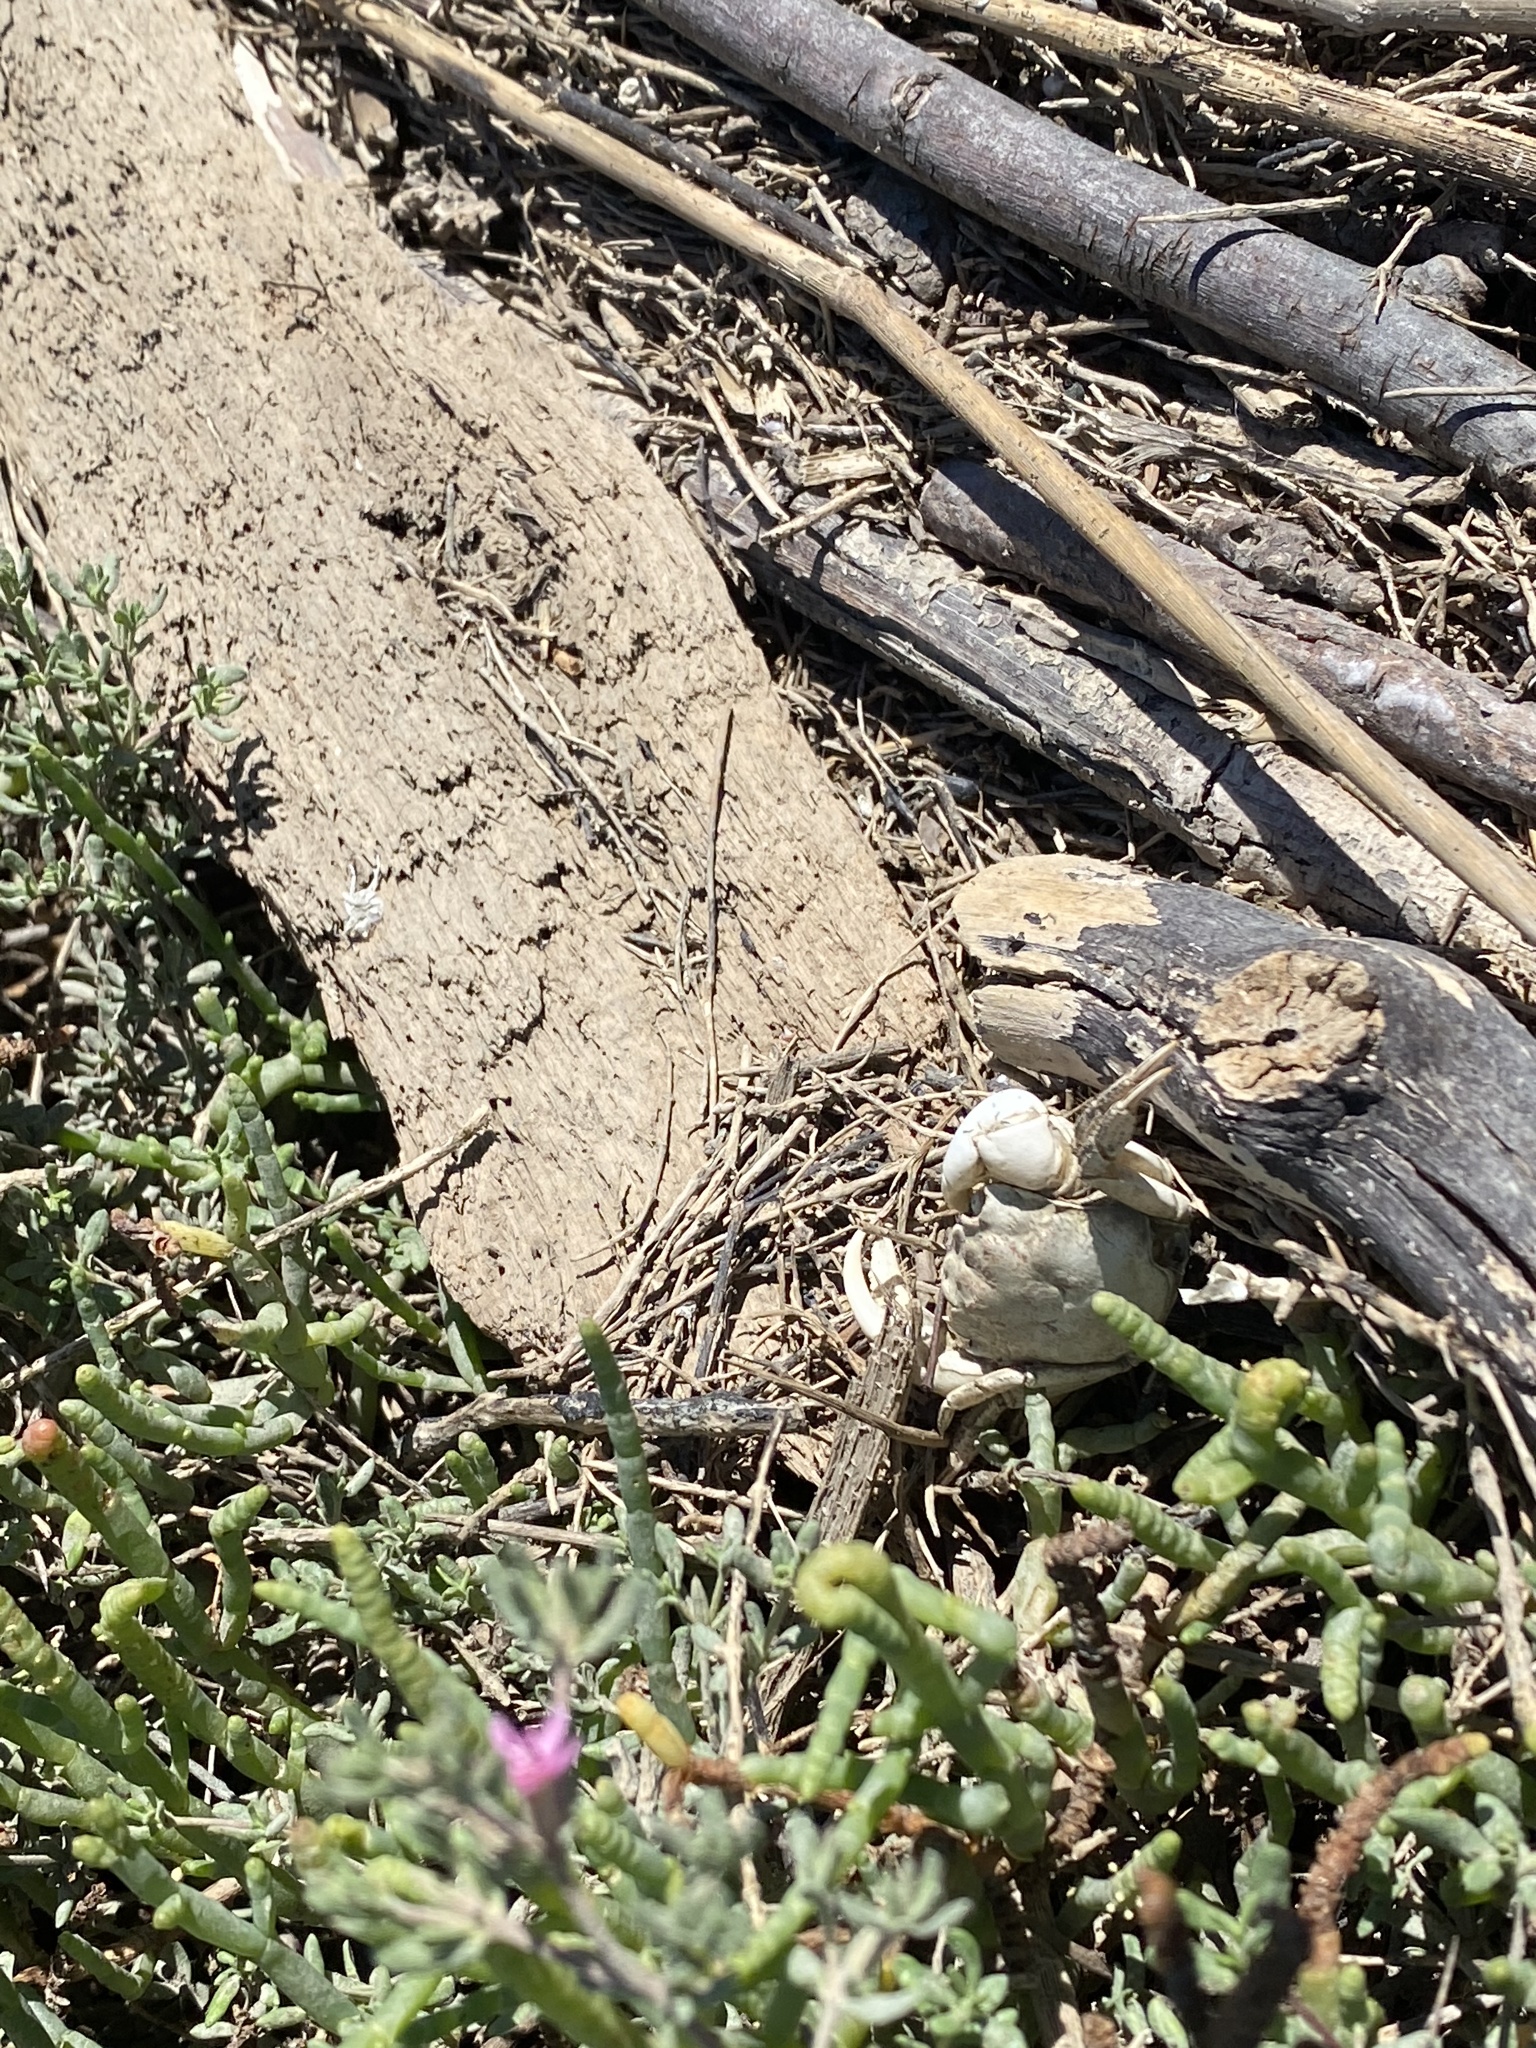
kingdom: Animalia
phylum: Arthropoda
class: Malacostraca
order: Decapoda
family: Varunidae
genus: Hemigrapsus
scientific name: Hemigrapsus oregonensis
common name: Yellow shore crab
